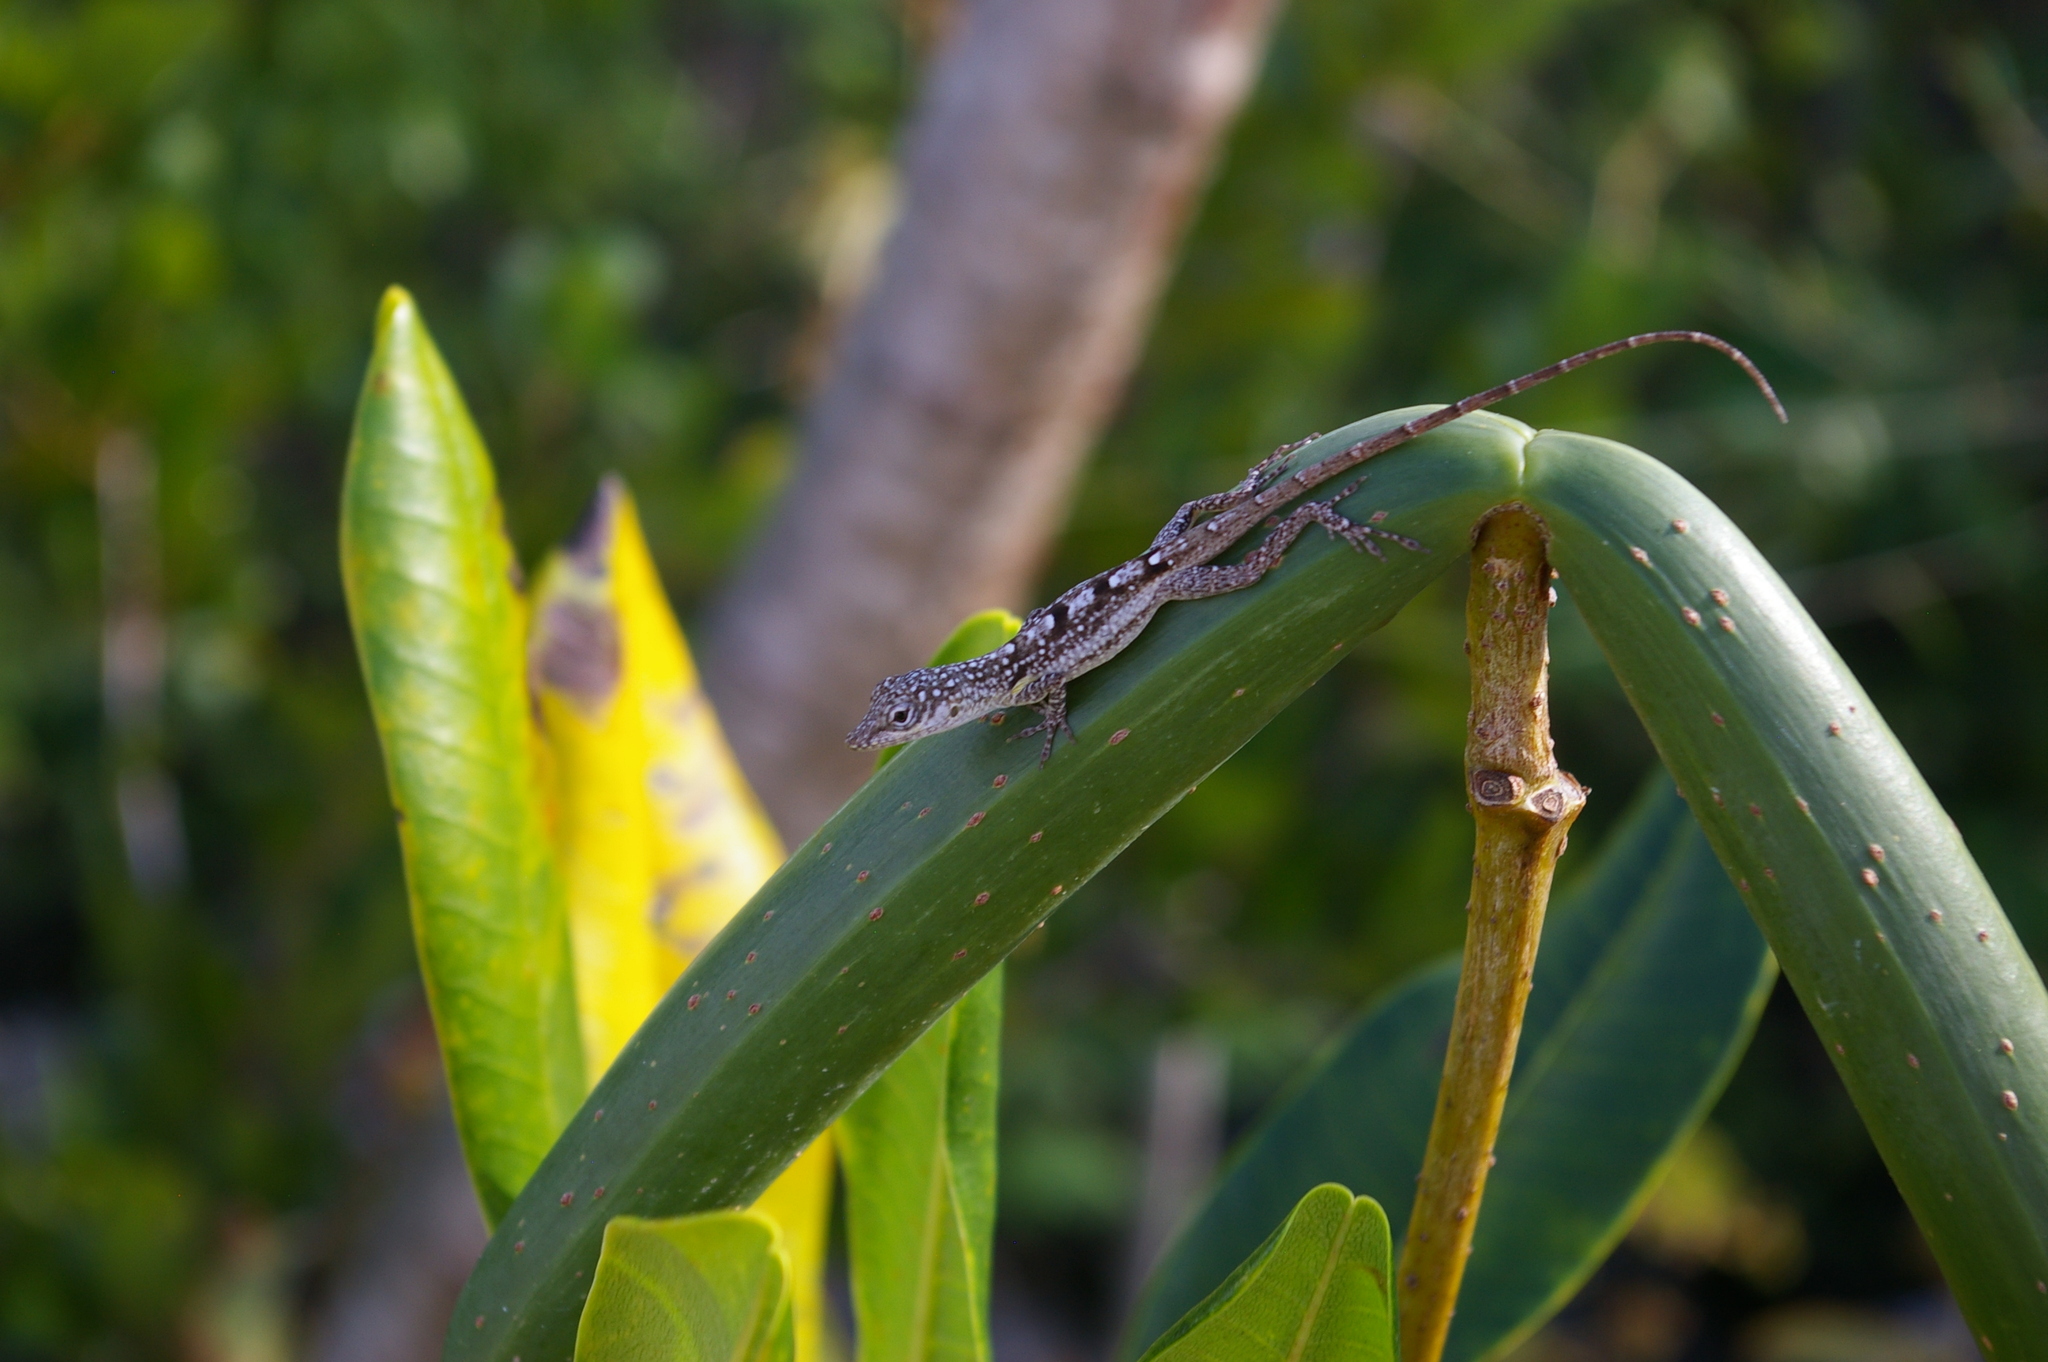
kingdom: Animalia
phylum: Chordata
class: Squamata
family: Dactyloidae
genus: Anolis
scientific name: Anolis conspersus
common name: Grand cayman anole
